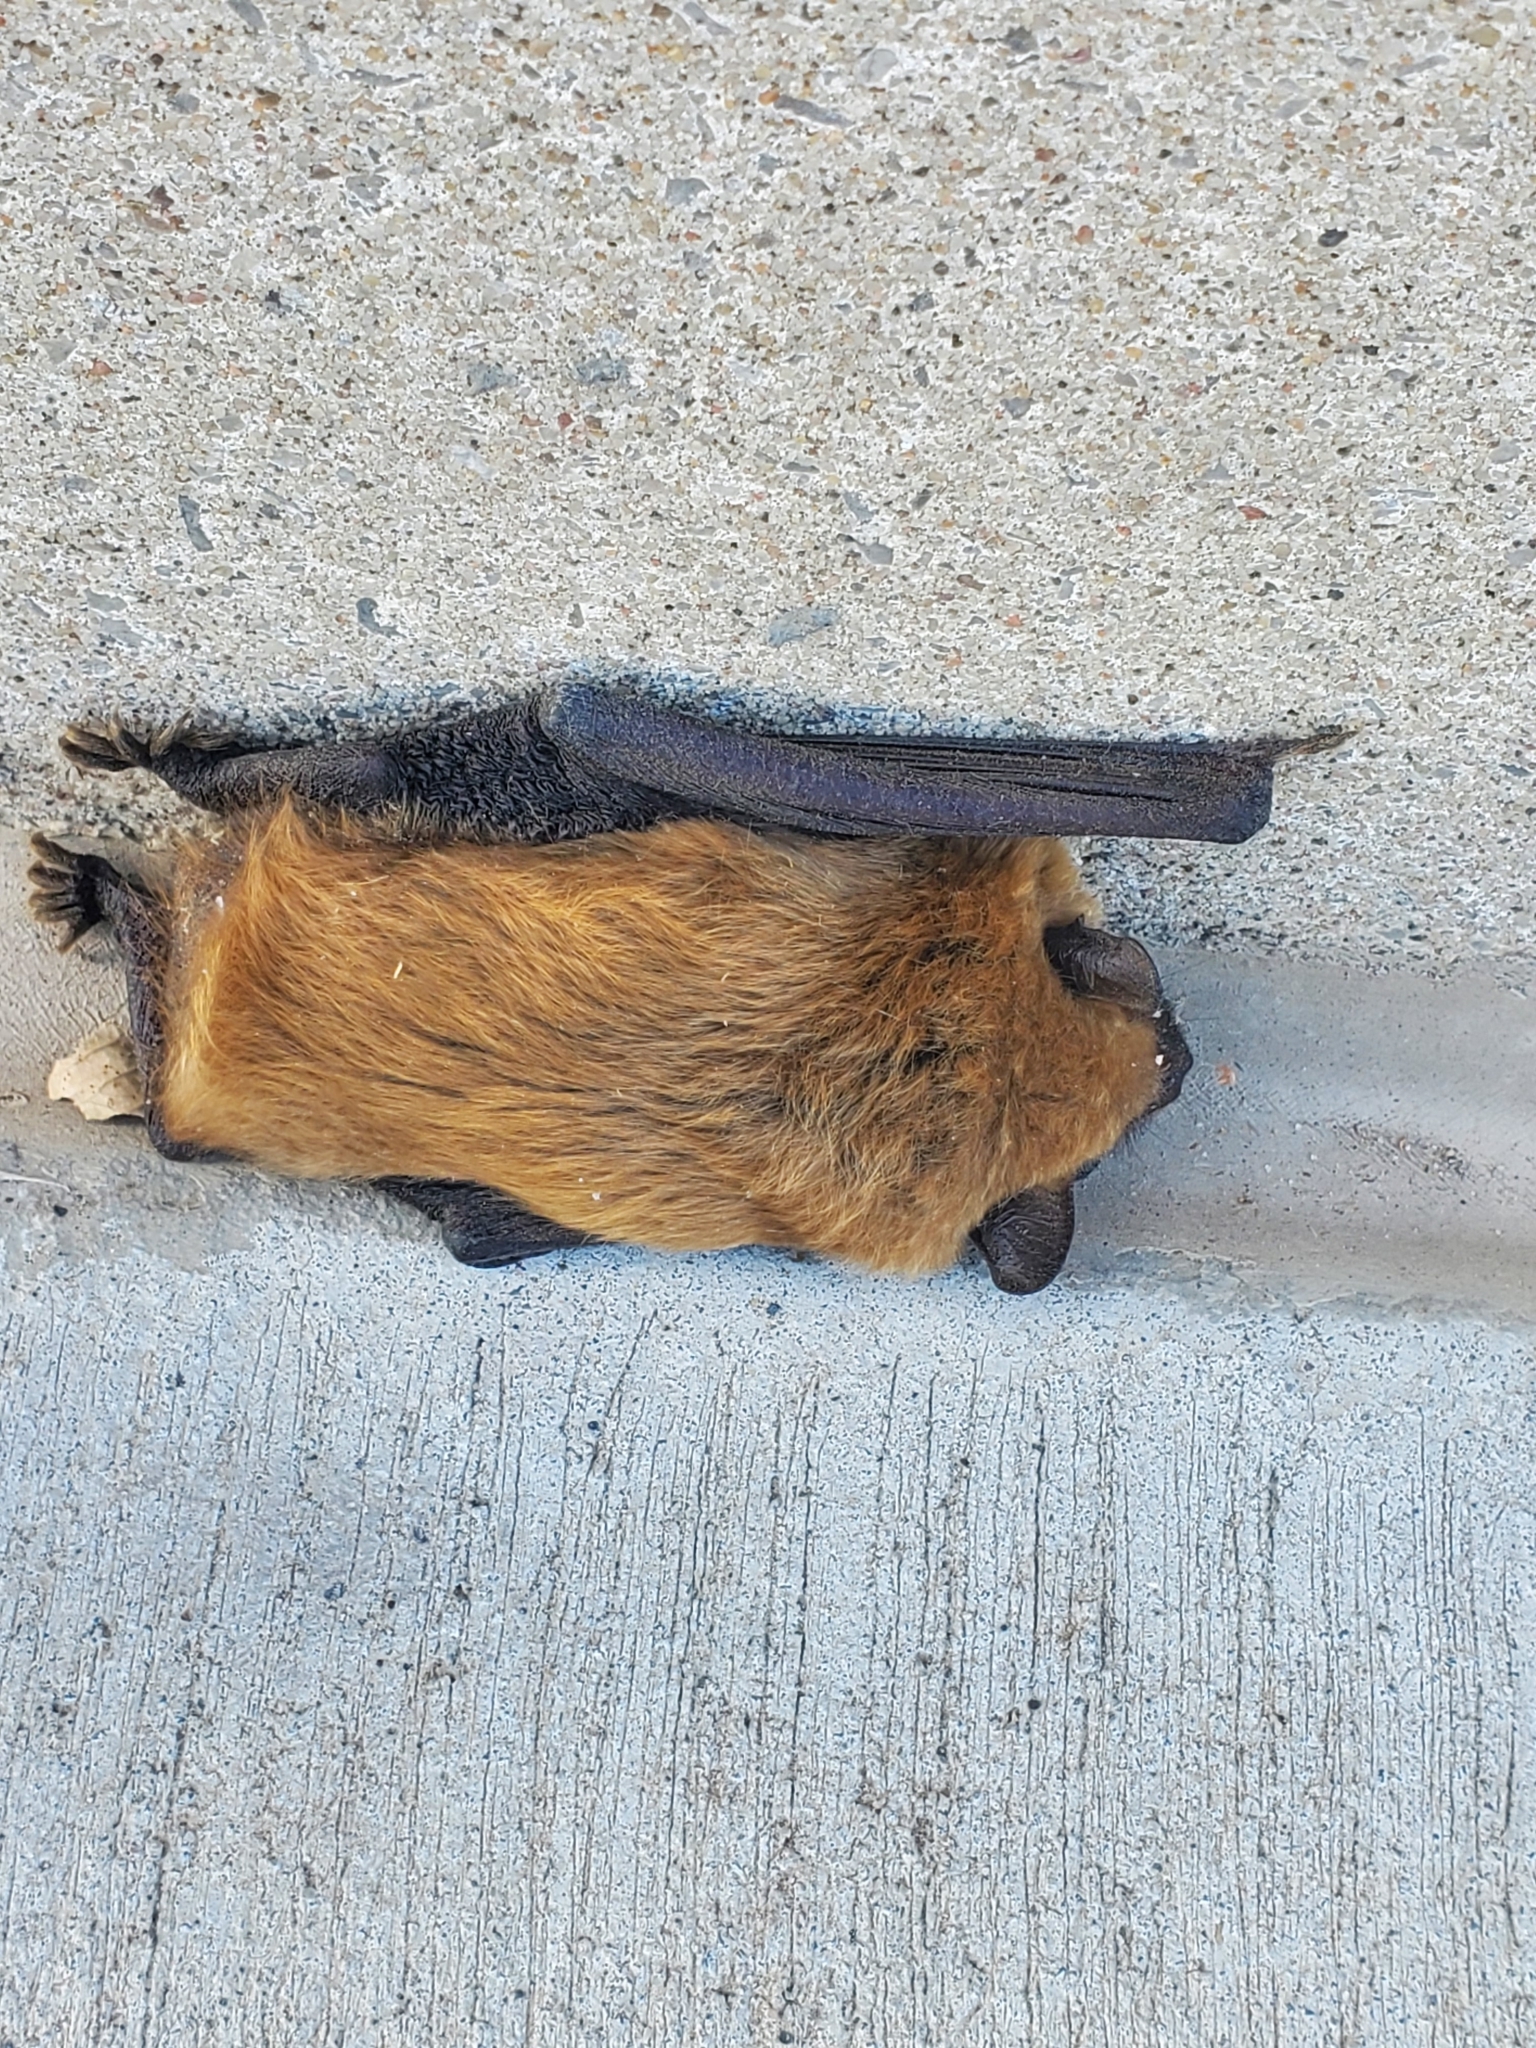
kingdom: Animalia
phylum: Chordata
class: Mammalia
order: Chiroptera
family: Vespertilionidae
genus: Eptesicus
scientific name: Eptesicus fuscus
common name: Big brown bat
